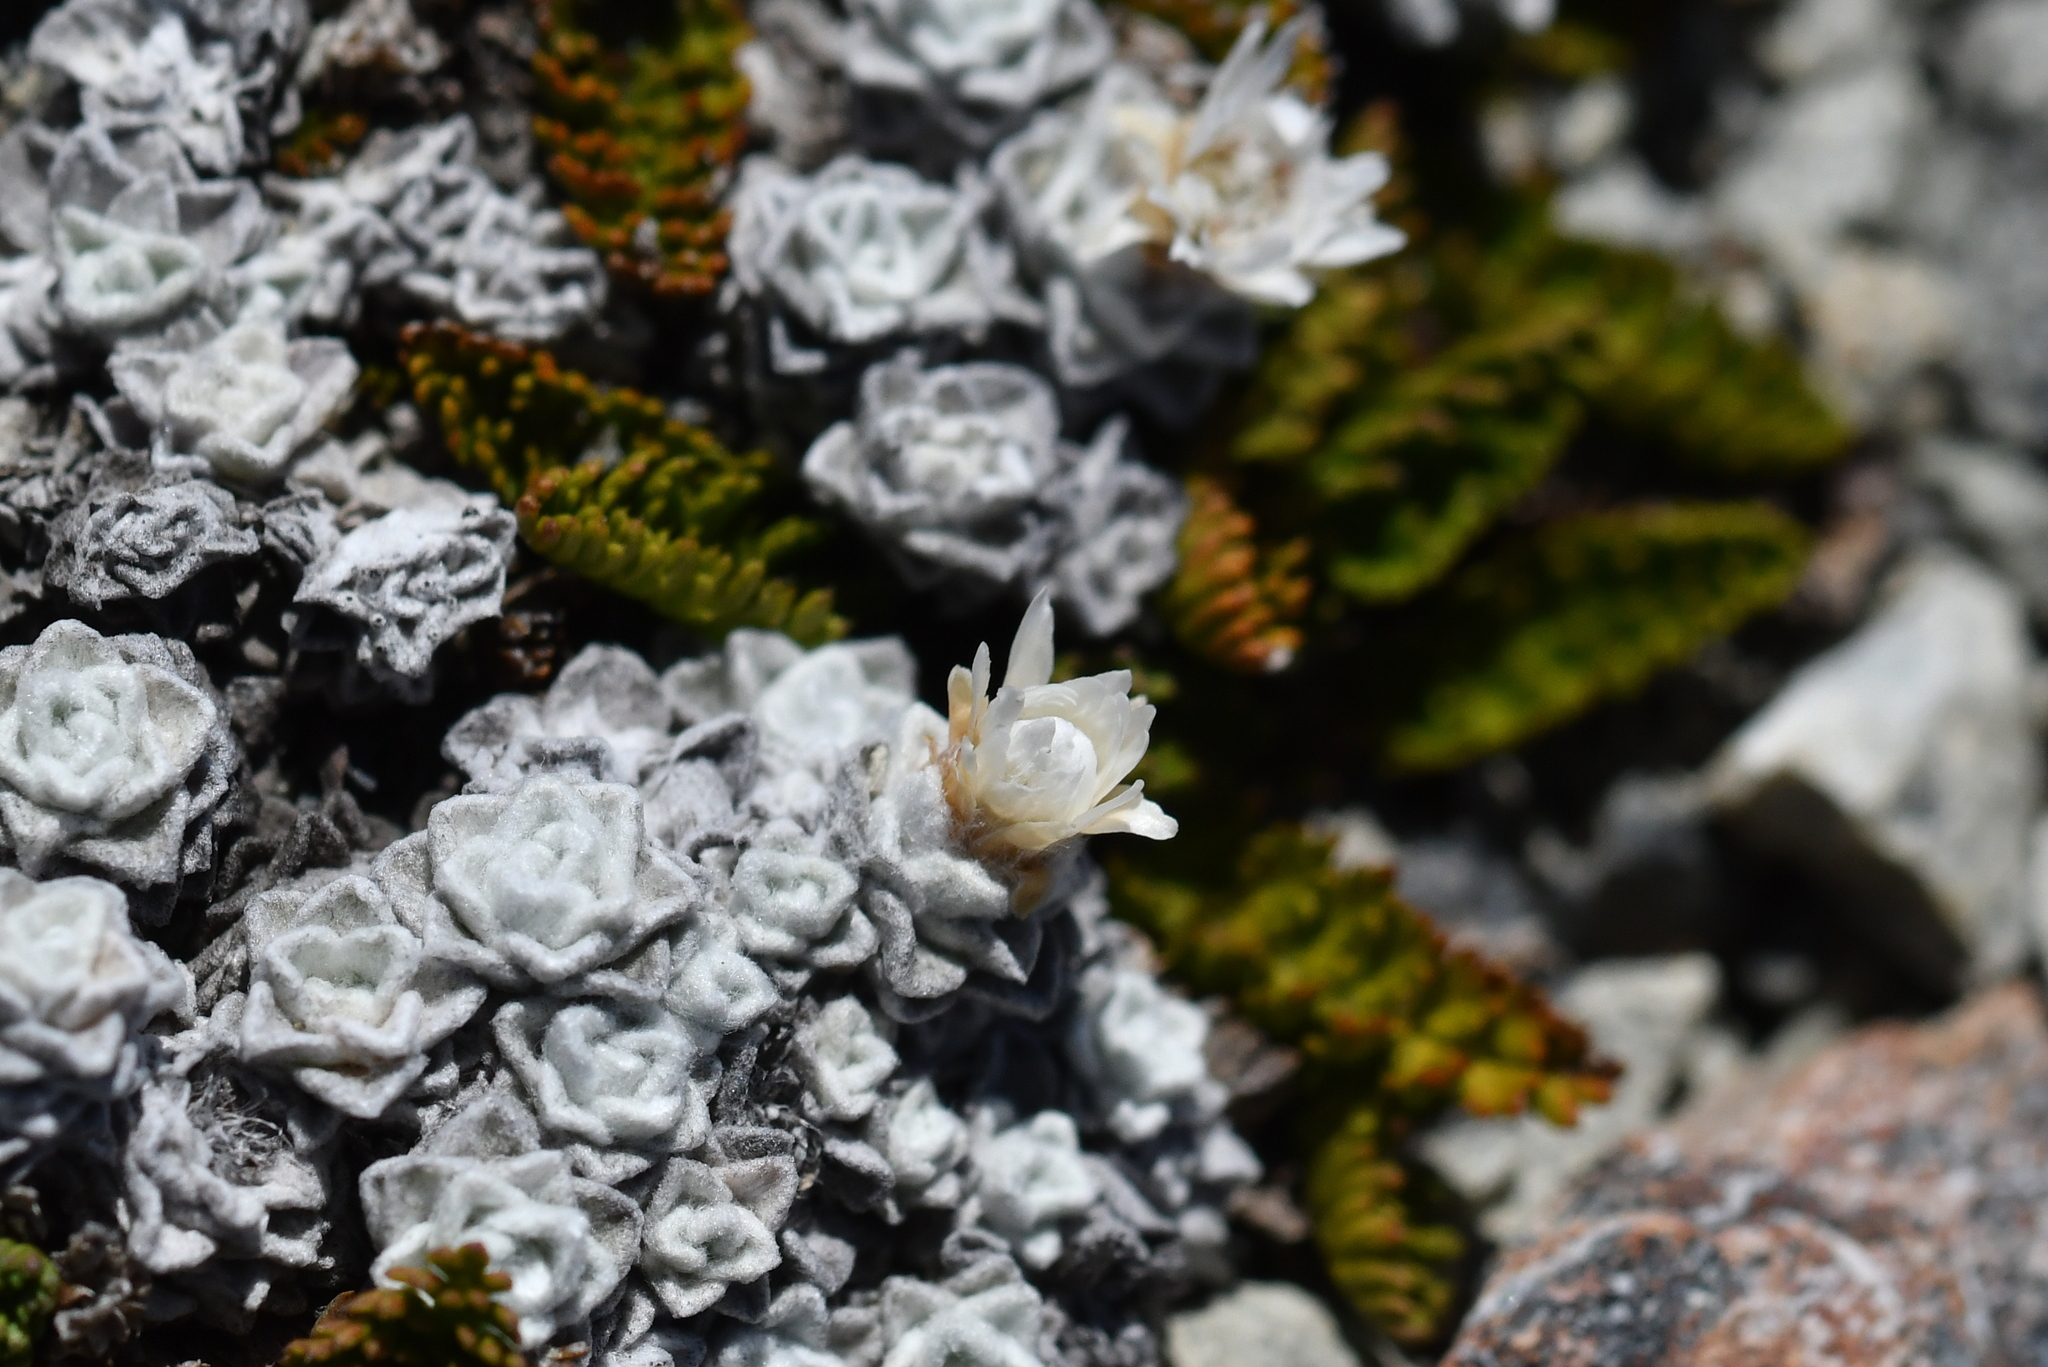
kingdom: Plantae
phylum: Tracheophyta
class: Magnoliopsida
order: Asterales
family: Asteraceae
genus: Raoulia
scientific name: Raoulia youngii
